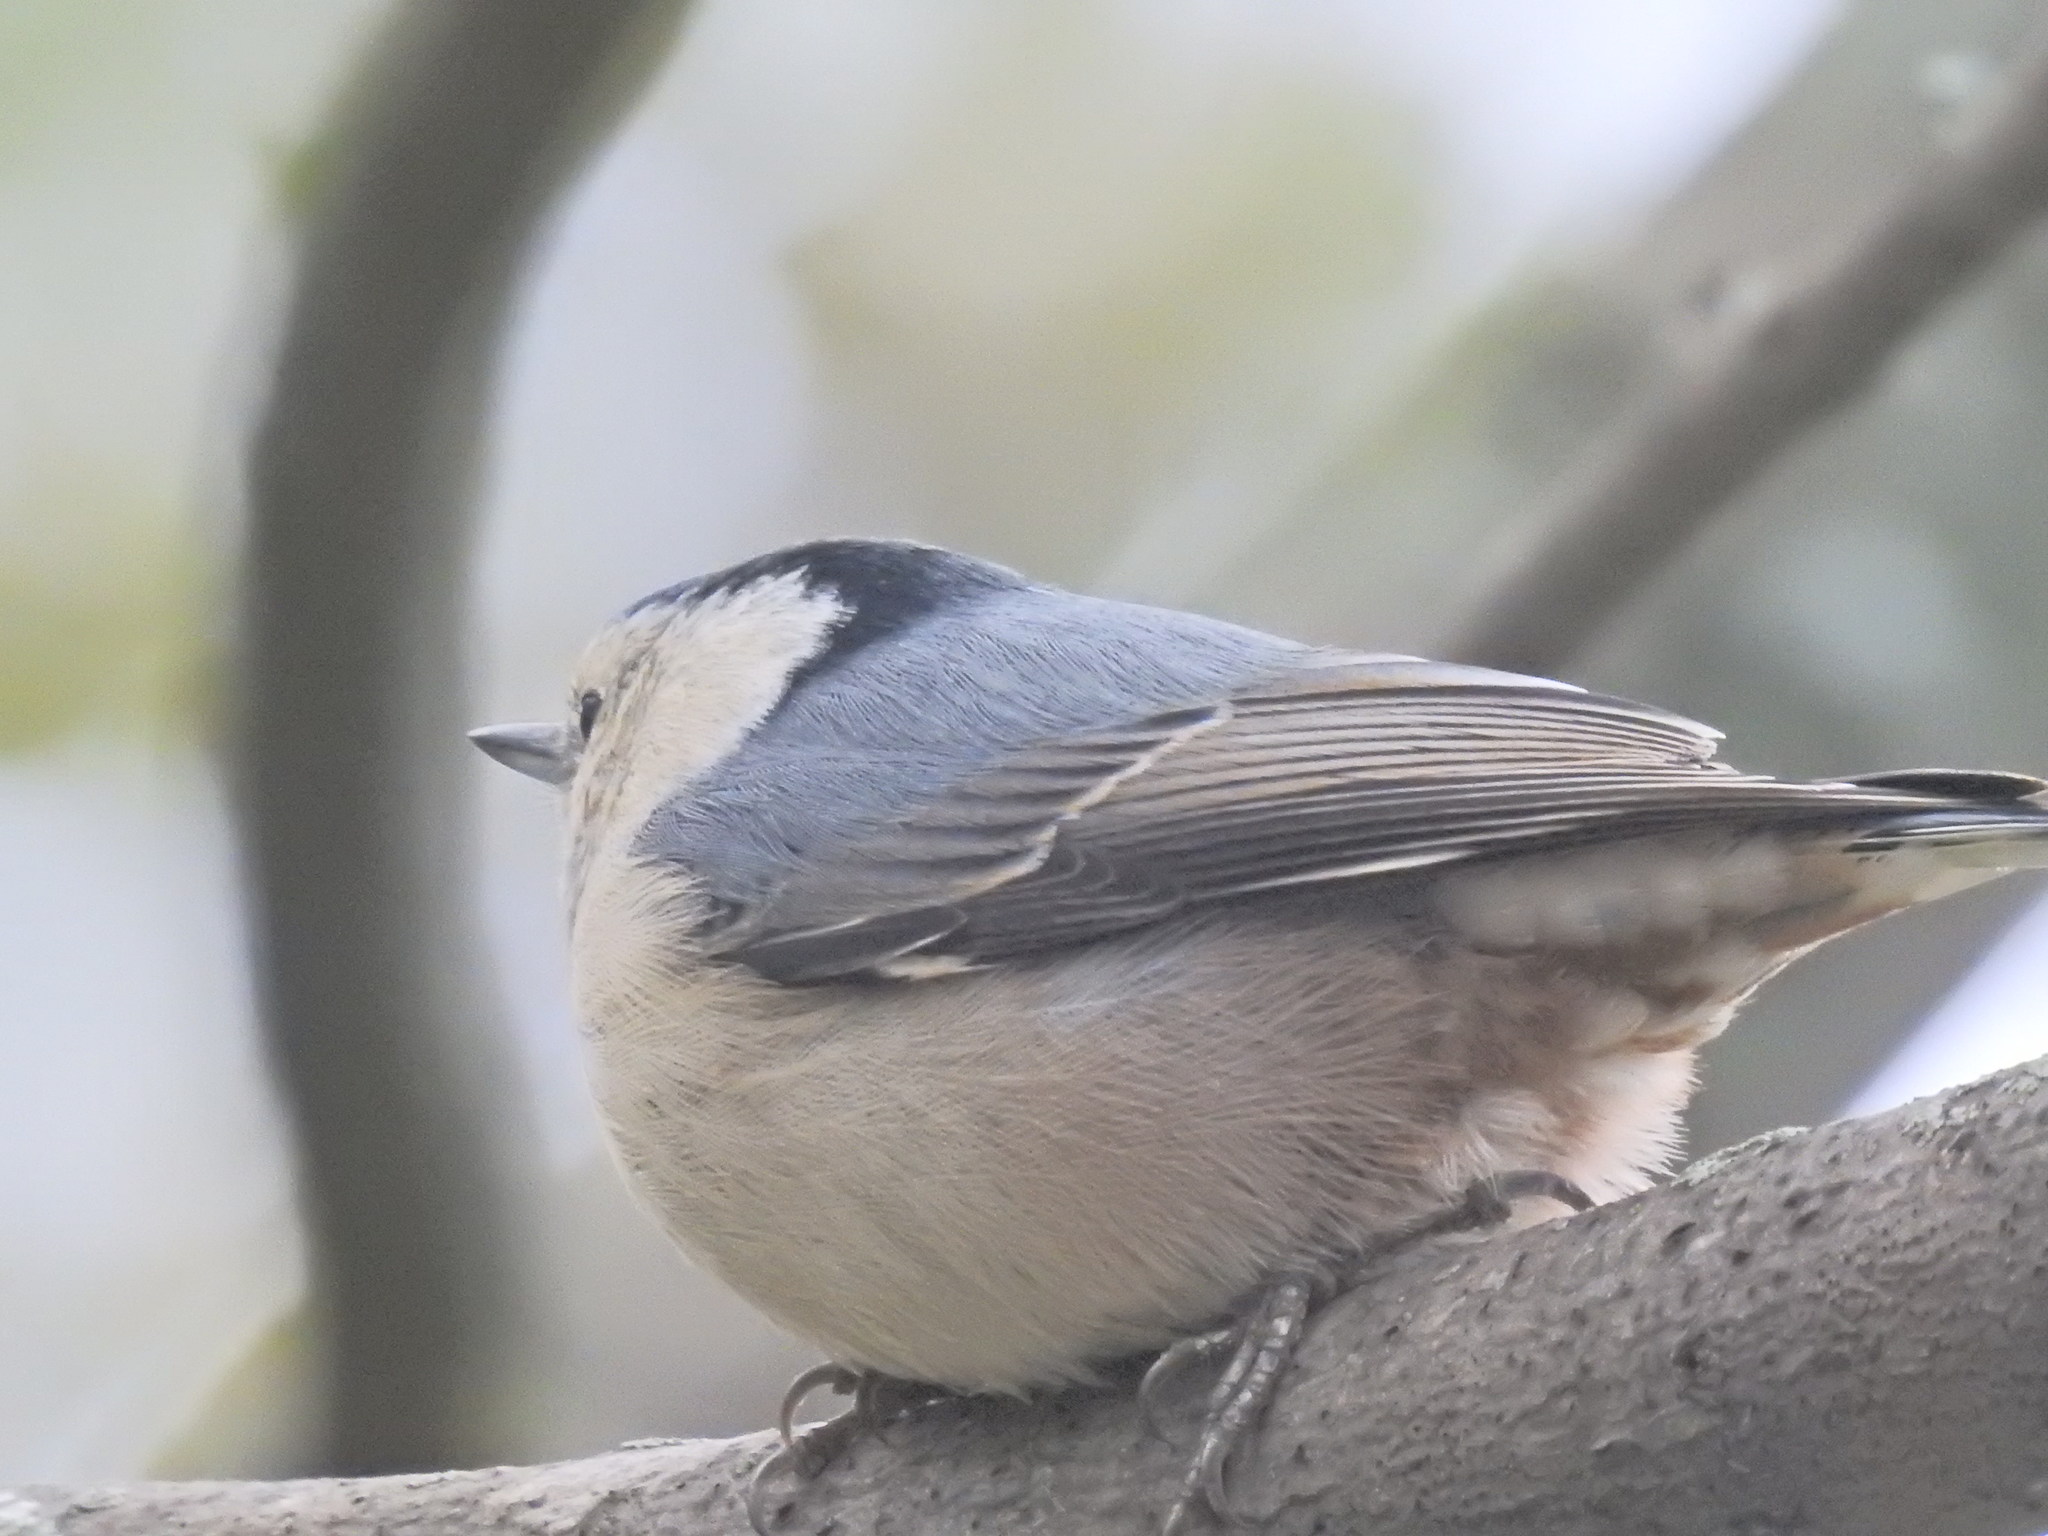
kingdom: Animalia
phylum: Chordata
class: Aves
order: Passeriformes
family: Sittidae
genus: Sitta
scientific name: Sitta carolinensis
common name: White-breasted nuthatch
